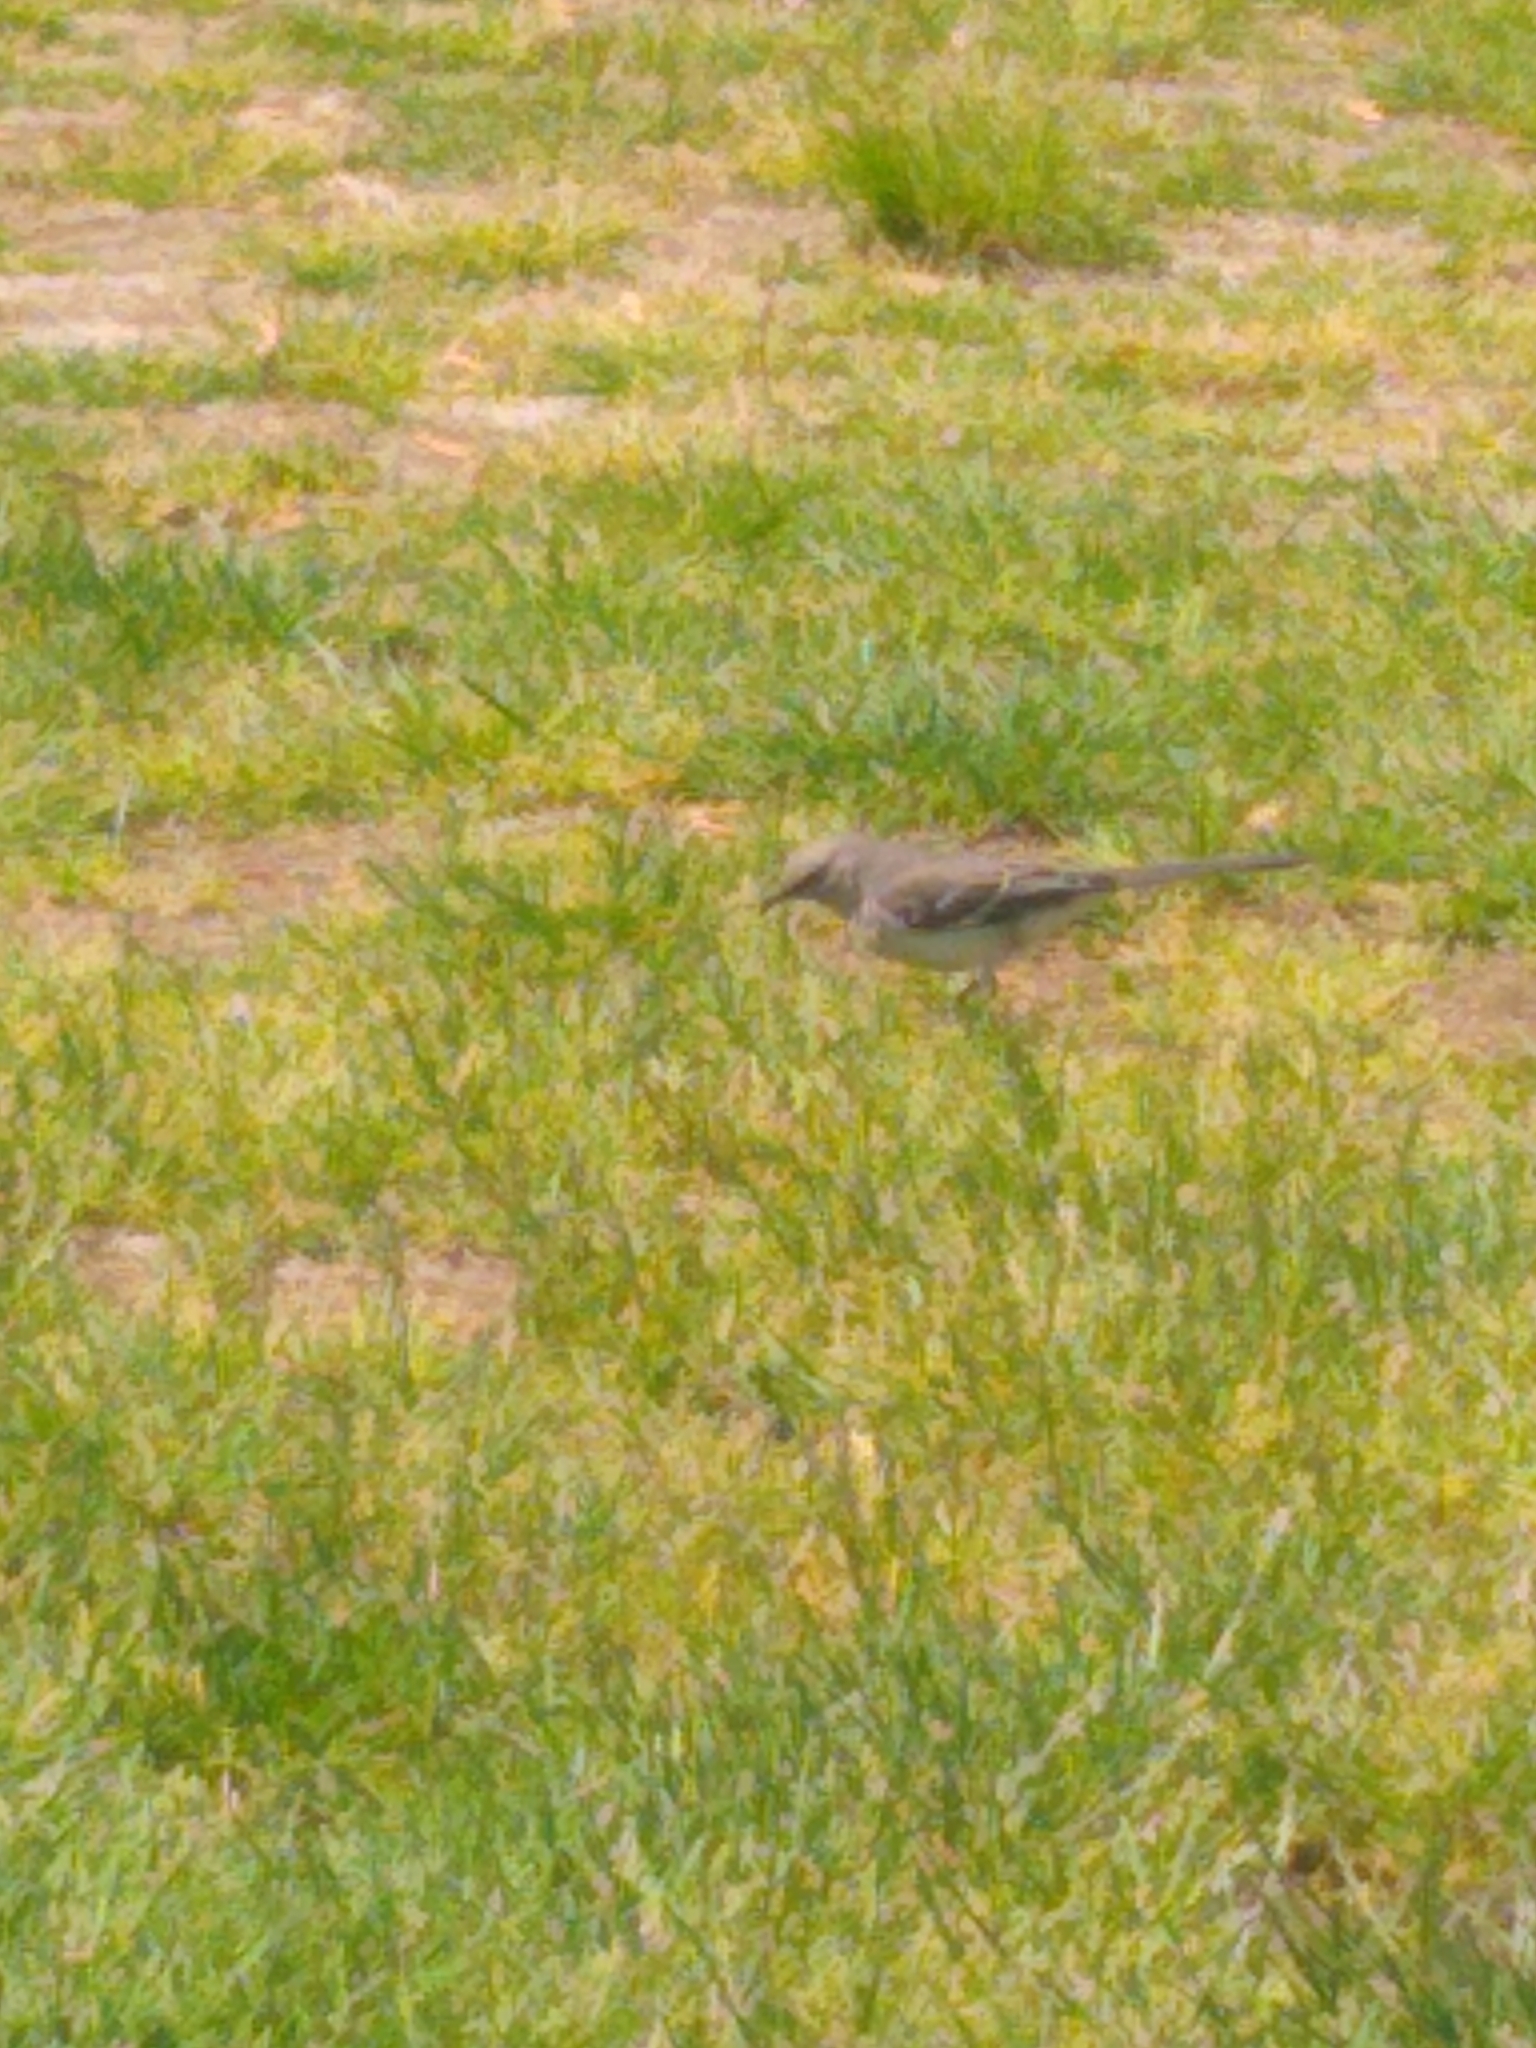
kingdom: Animalia
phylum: Chordata
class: Aves
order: Passeriformes
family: Mimidae
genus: Mimus
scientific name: Mimus polyglottos
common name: Northern mockingbird
